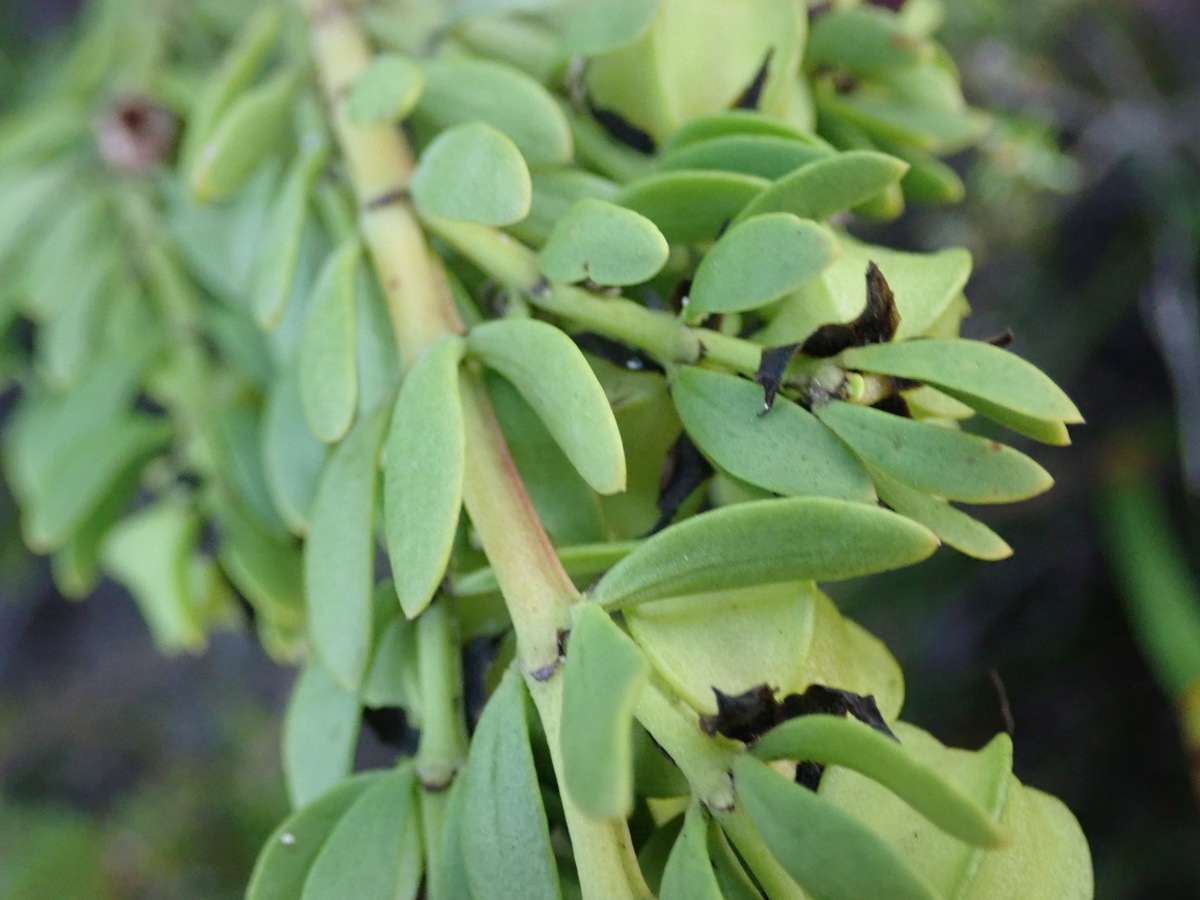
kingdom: Plantae
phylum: Tracheophyta
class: Magnoliopsida
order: Zygophyllales
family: Zygophyllaceae
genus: Roepera
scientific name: Roepera fuscata
